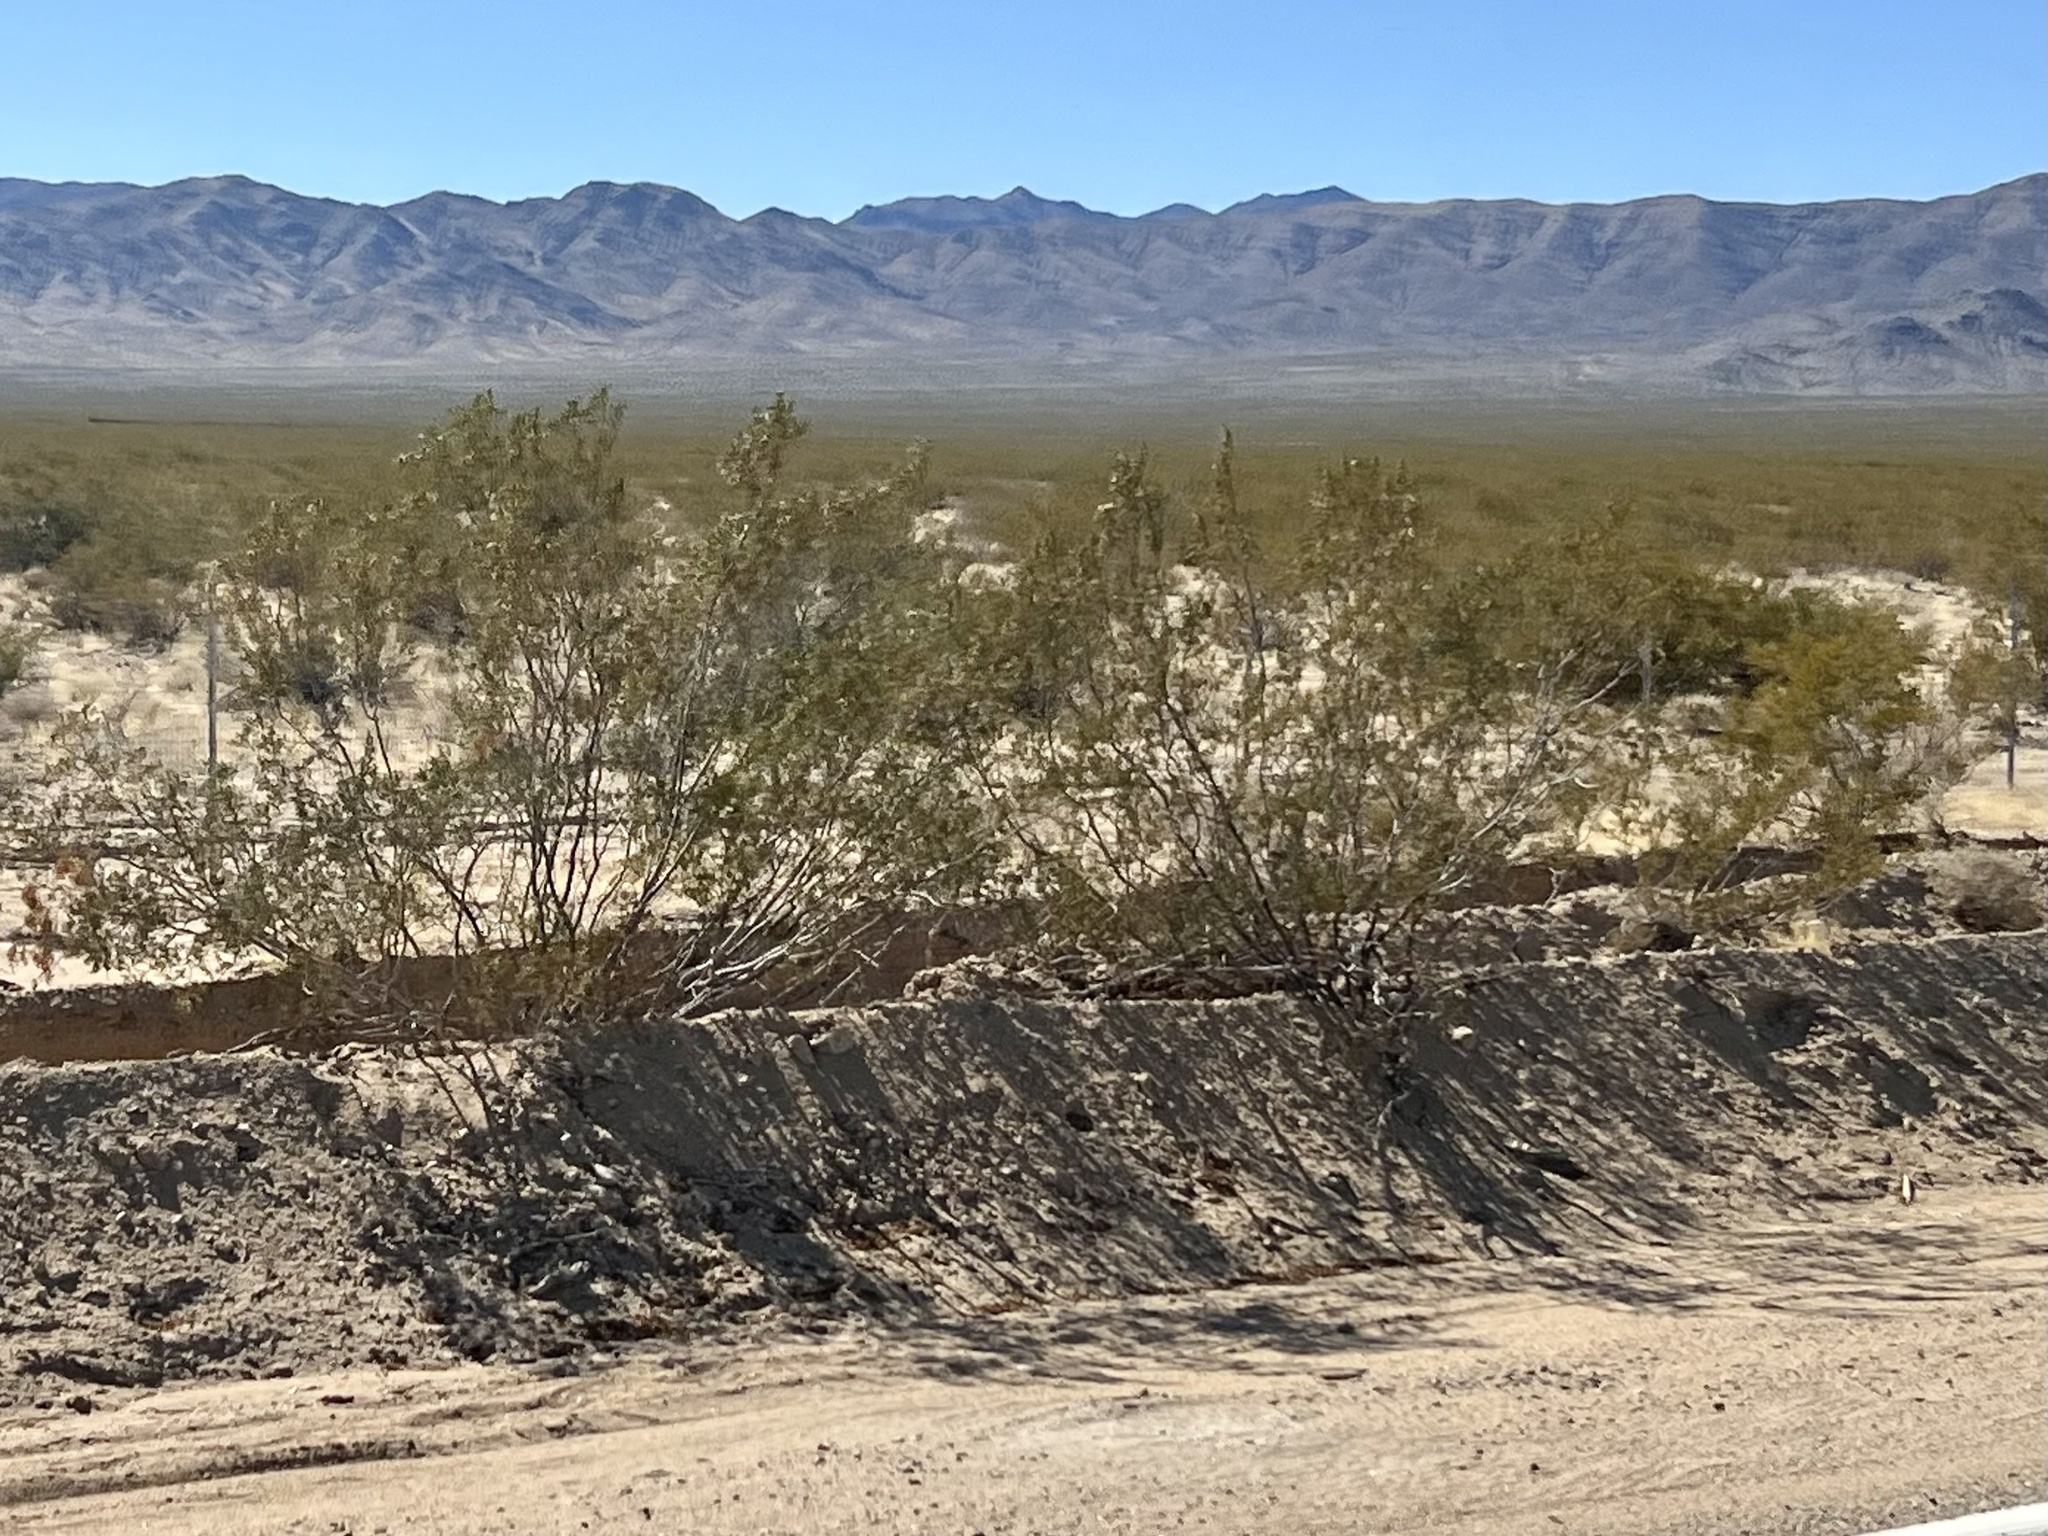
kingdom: Plantae
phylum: Tracheophyta
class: Magnoliopsida
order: Zygophyllales
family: Zygophyllaceae
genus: Larrea
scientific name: Larrea tridentata
